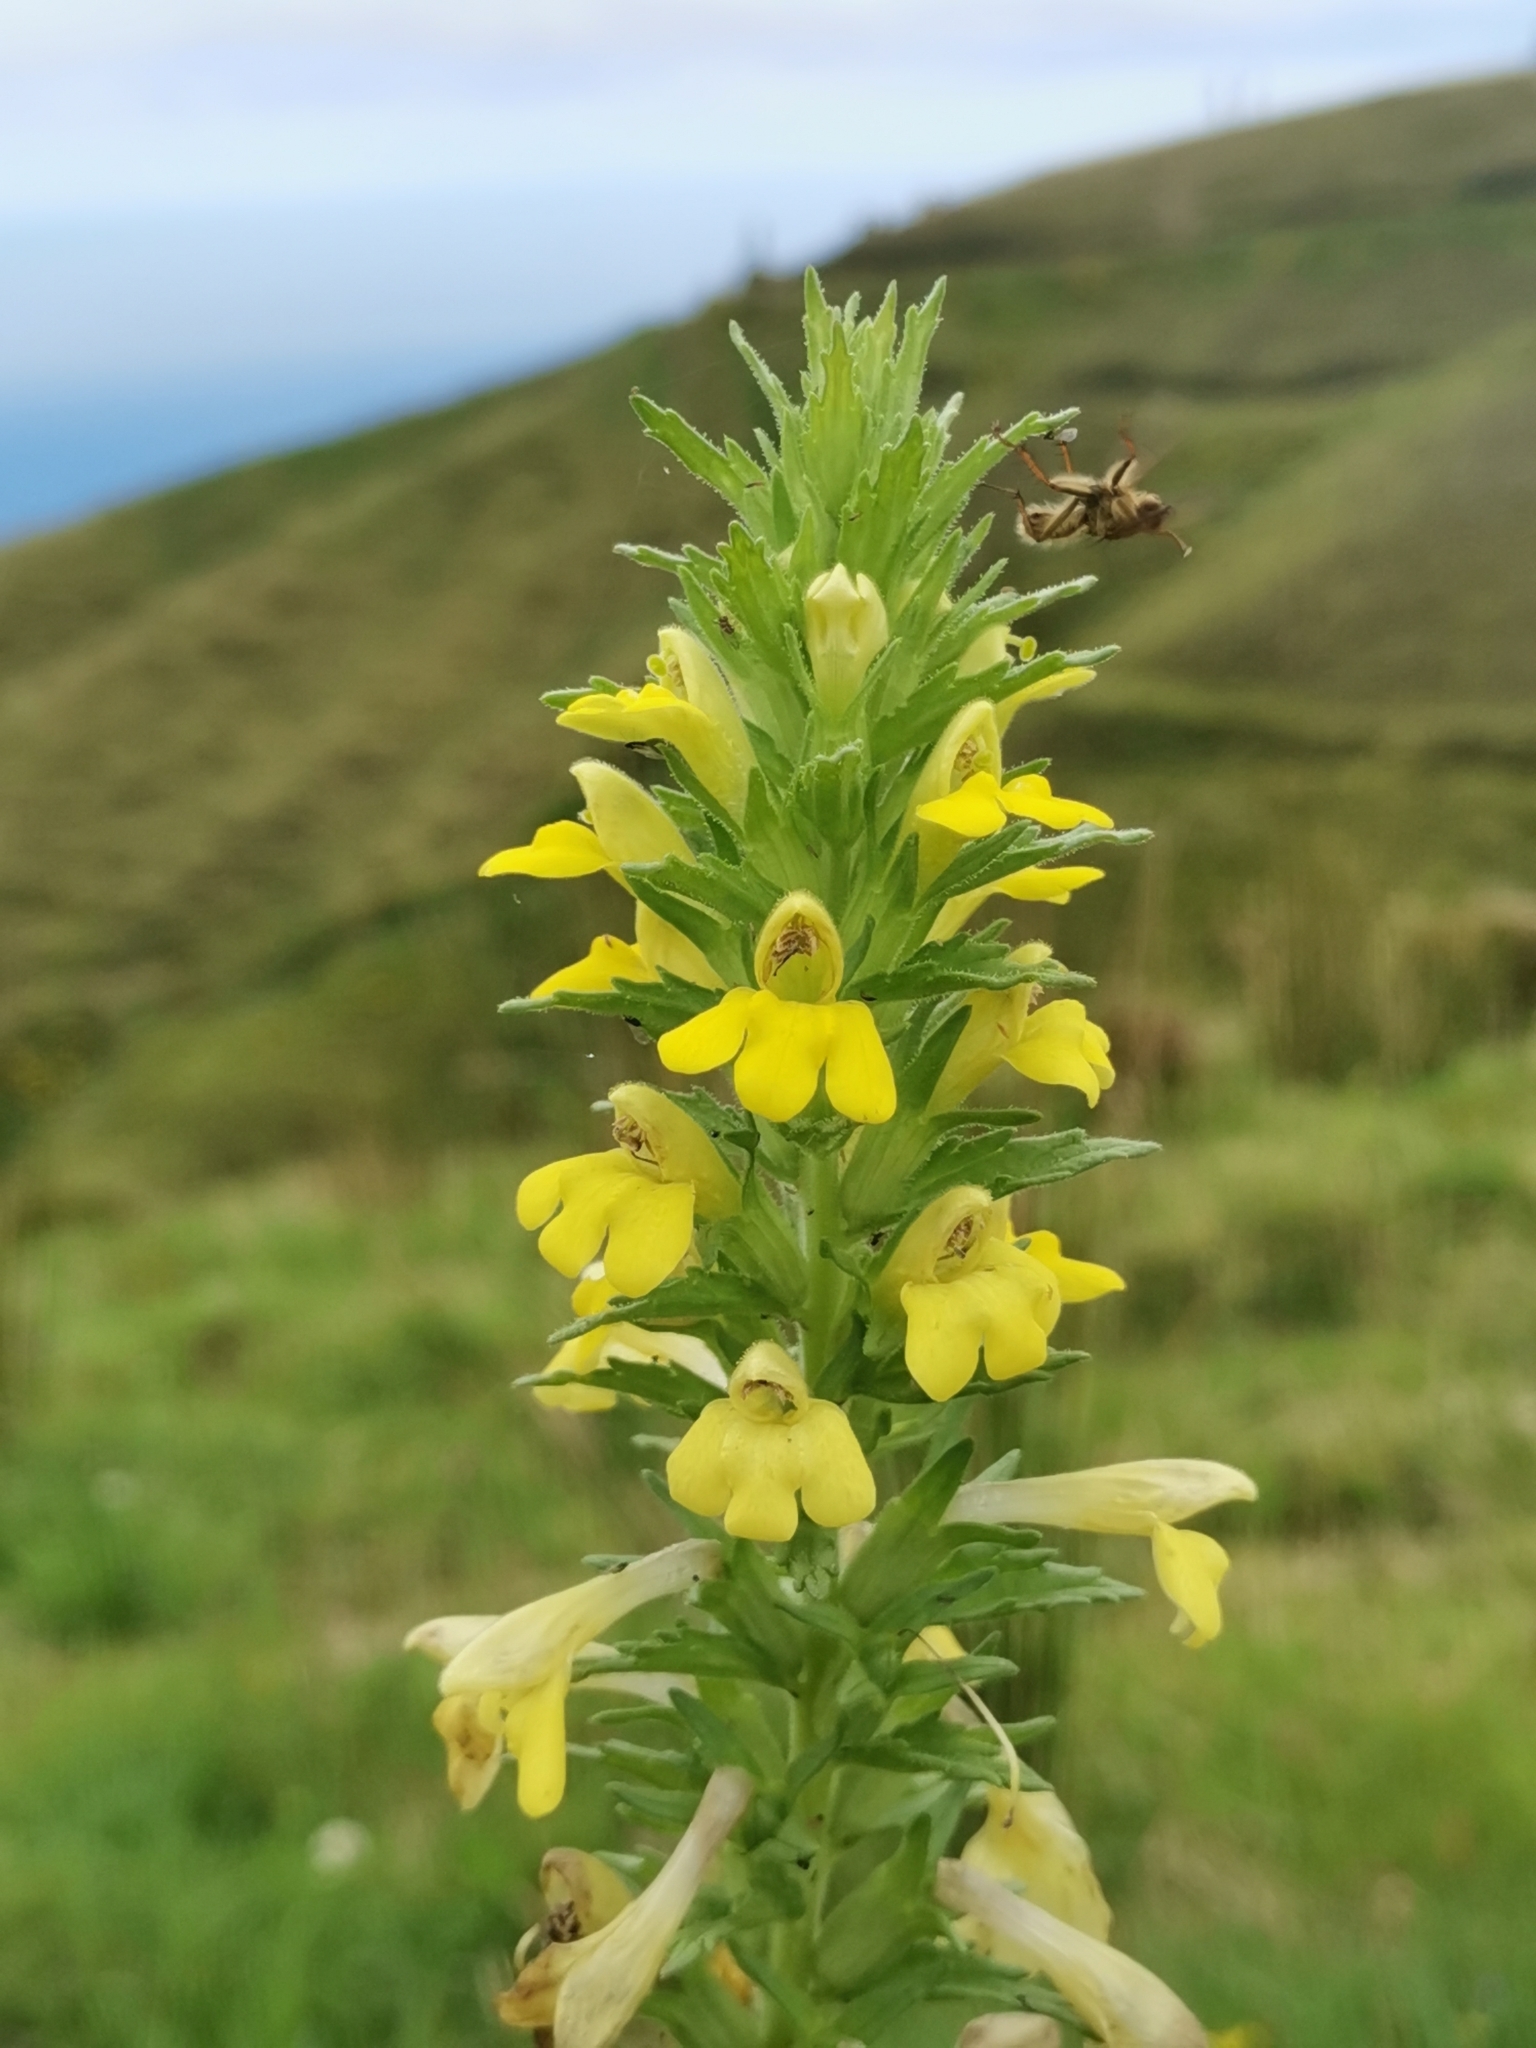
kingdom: Plantae
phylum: Tracheophyta
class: Magnoliopsida
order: Lamiales
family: Orobanchaceae
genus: Bellardia
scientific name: Bellardia viscosa
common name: Sticky parentucellia
